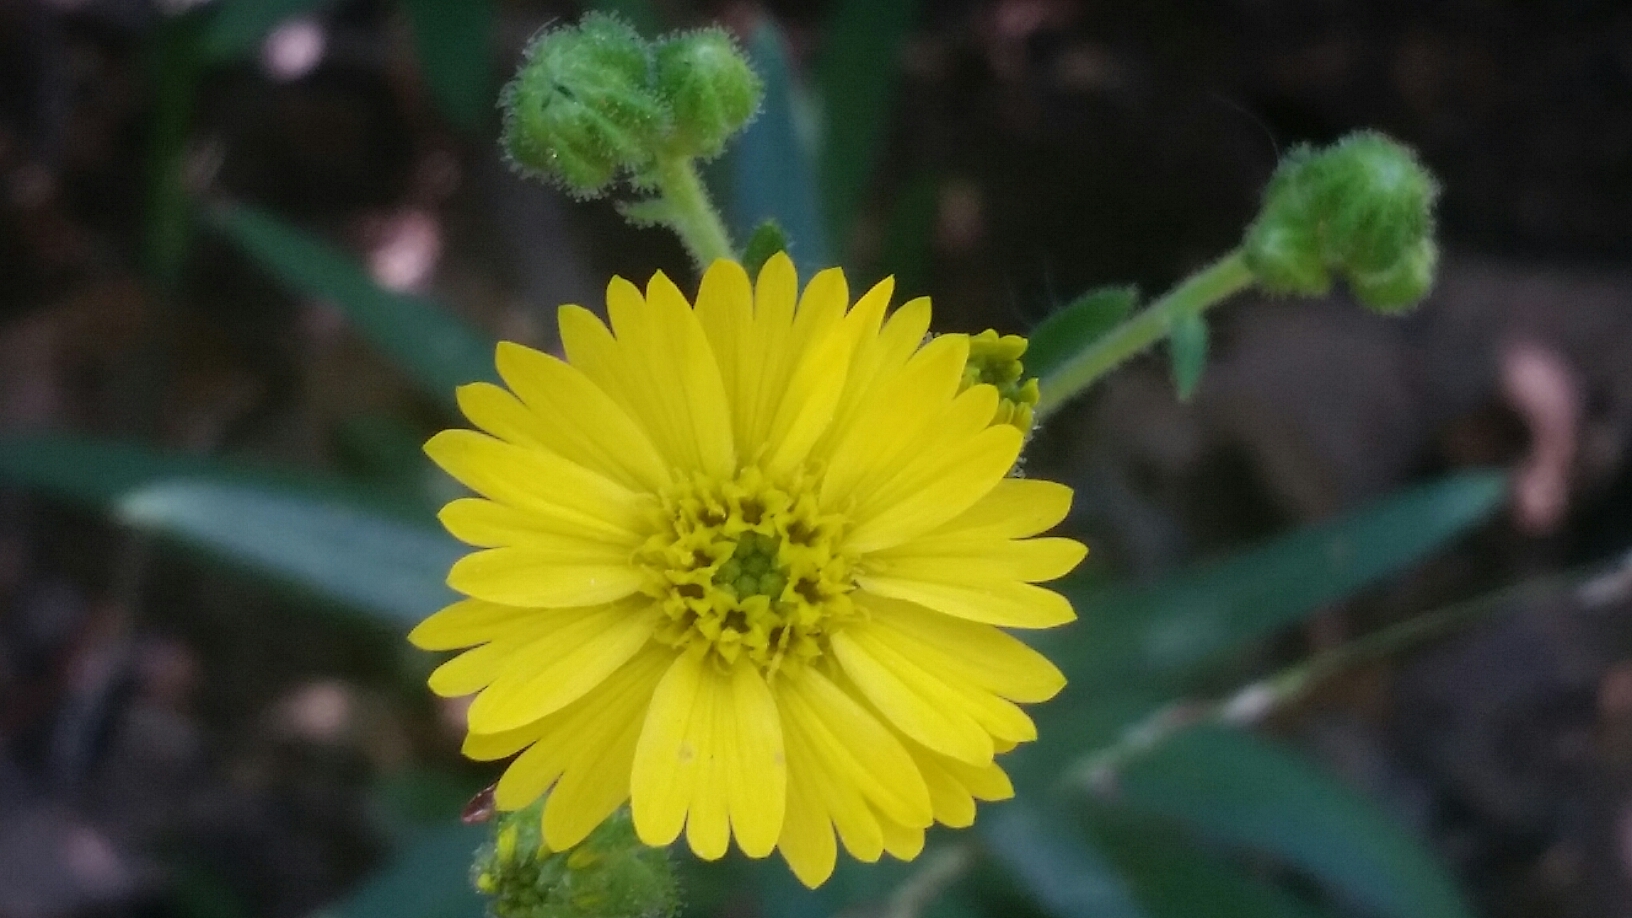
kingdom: Plantae
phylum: Tracheophyta
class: Magnoliopsida
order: Asterales
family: Asteraceae
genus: Anisocarpus
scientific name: Anisocarpus madioides
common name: Woodland madia
